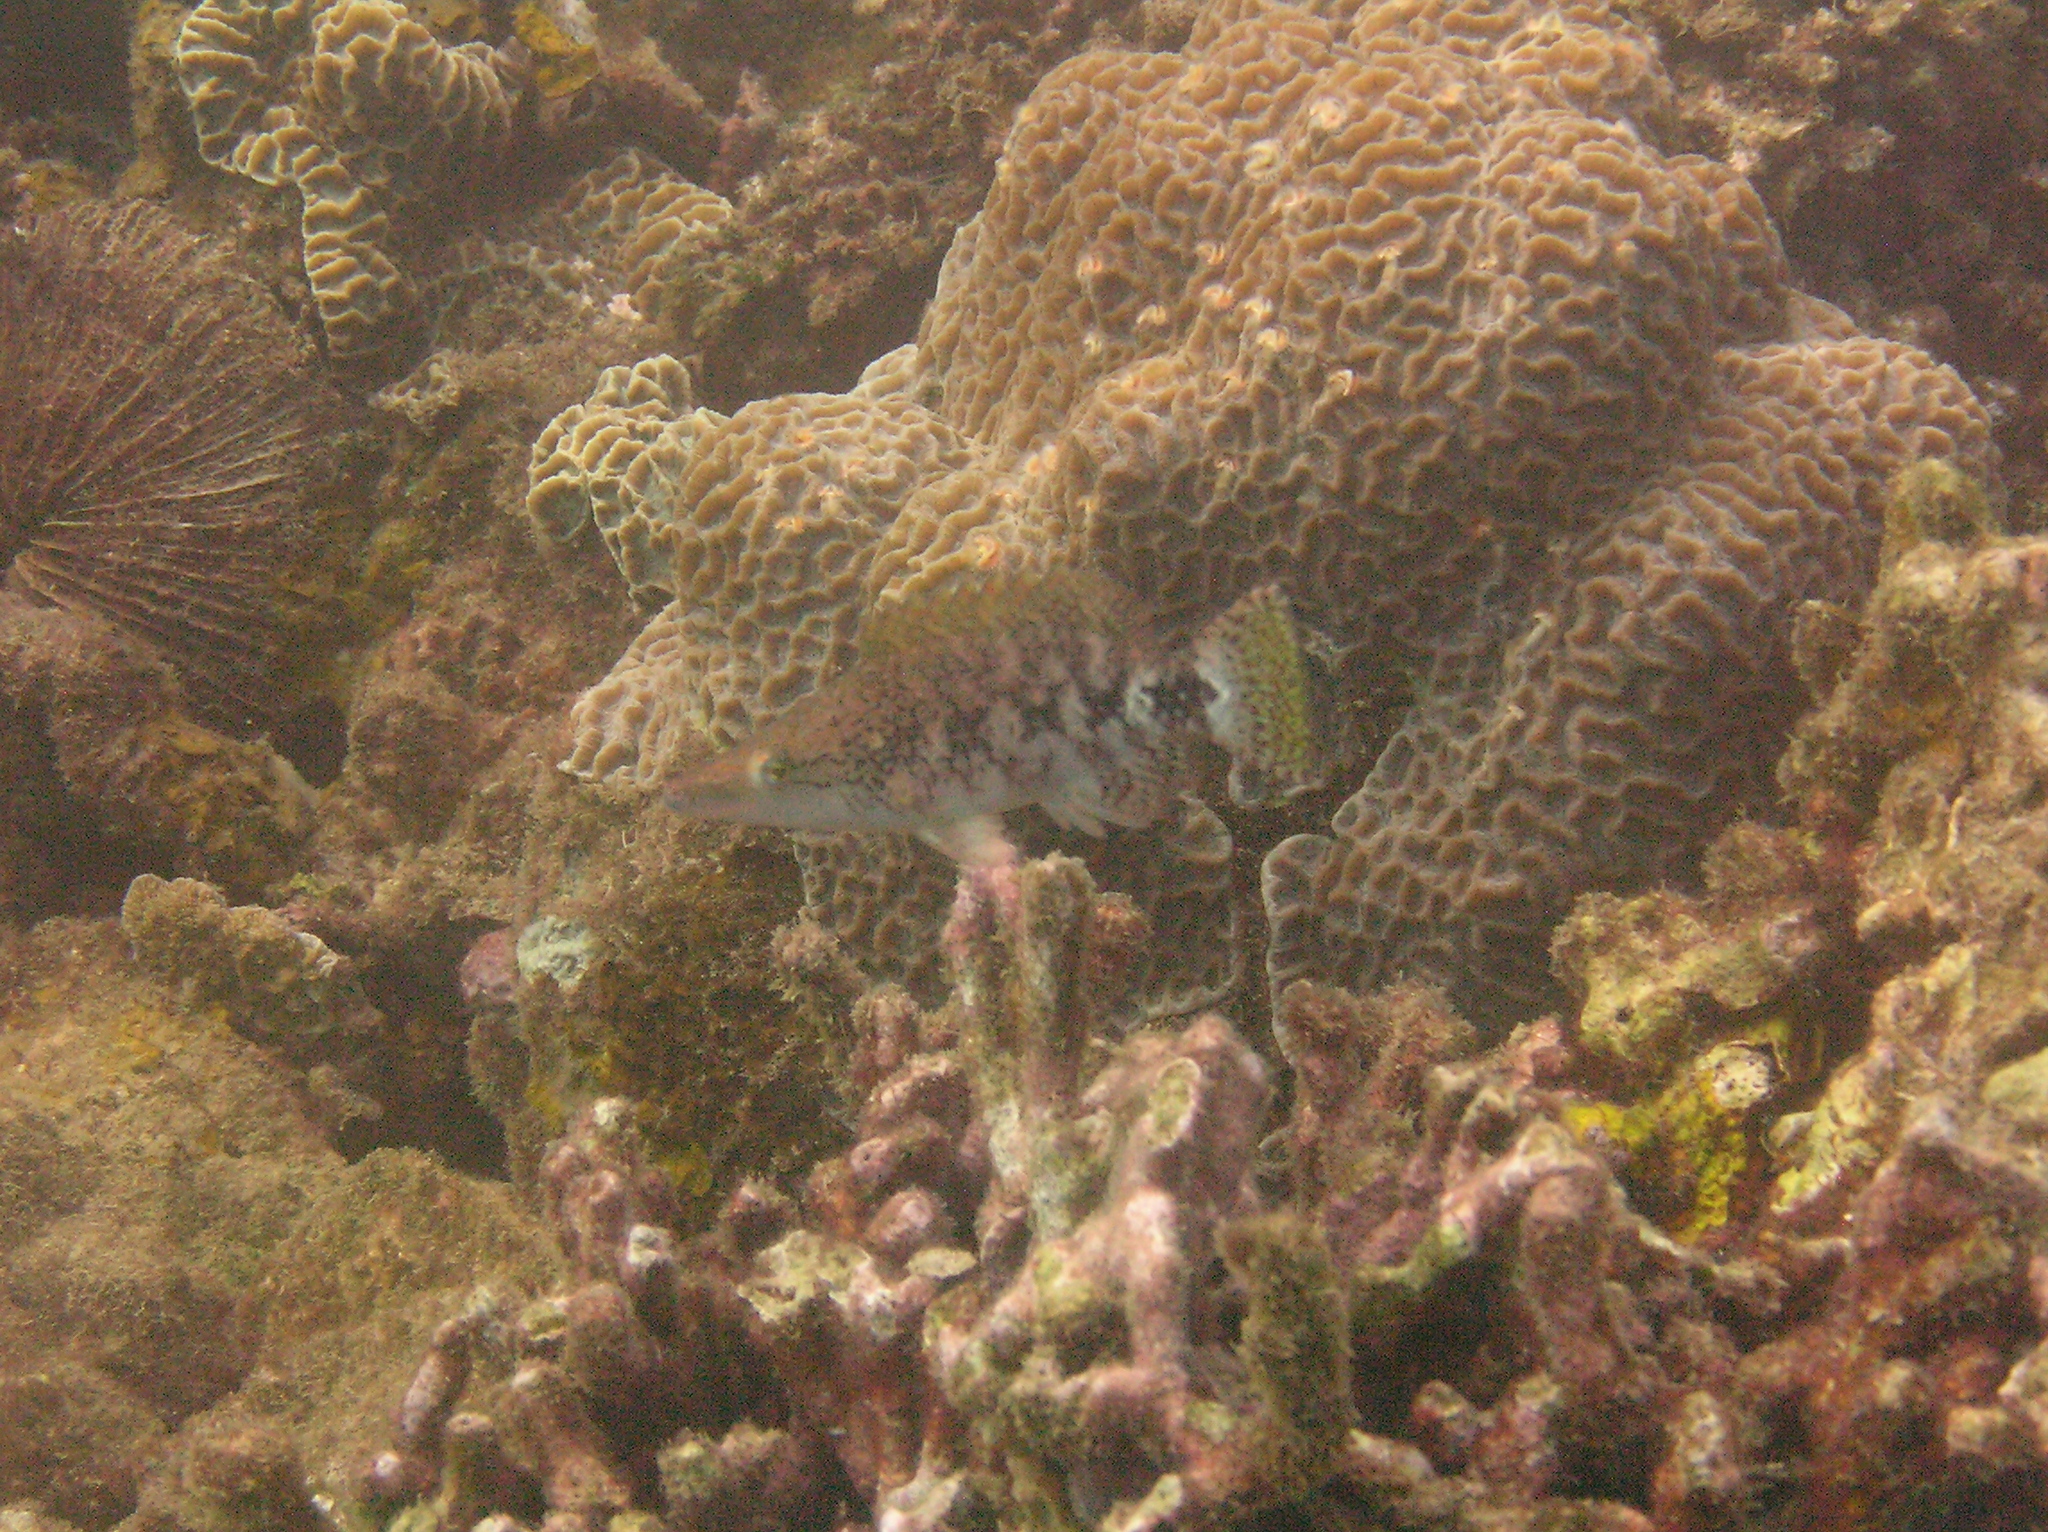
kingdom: Animalia
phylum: Chordata
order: Perciformes
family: Labridae
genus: Oxycheilinus
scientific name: Oxycheilinus celebicus
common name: Celebes maori wrasse
